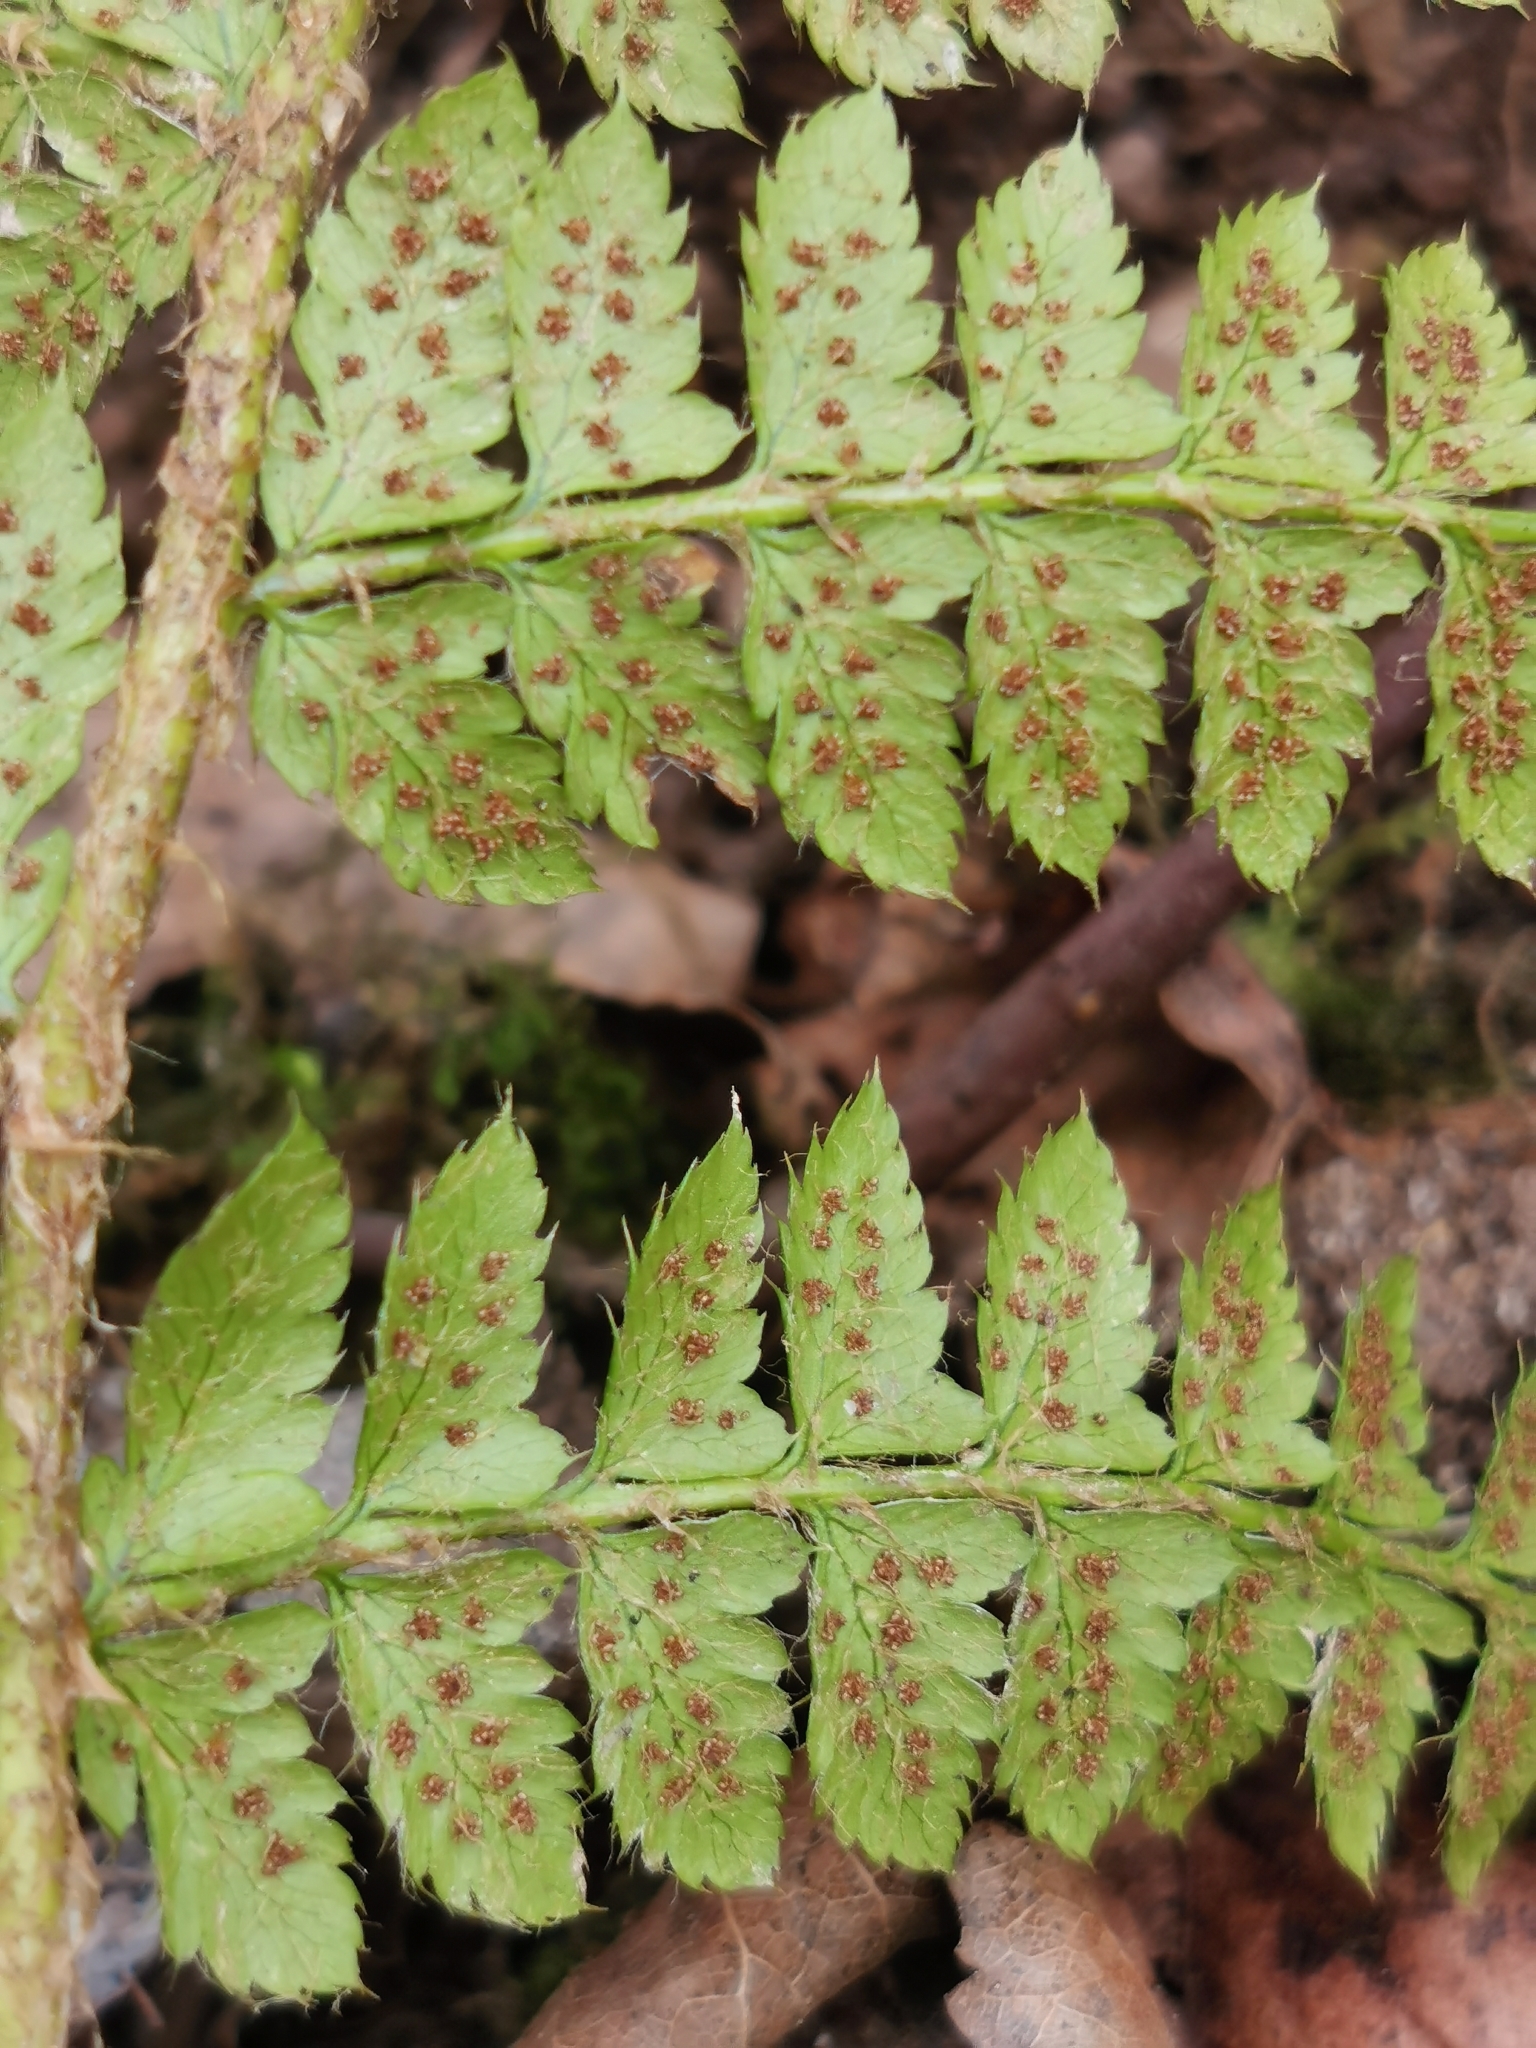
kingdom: Plantae
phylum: Tracheophyta
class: Polypodiopsida
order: Polypodiales
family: Dryopteridaceae
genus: Polystichum
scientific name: Polystichum braunii
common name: Braun's holly fern
